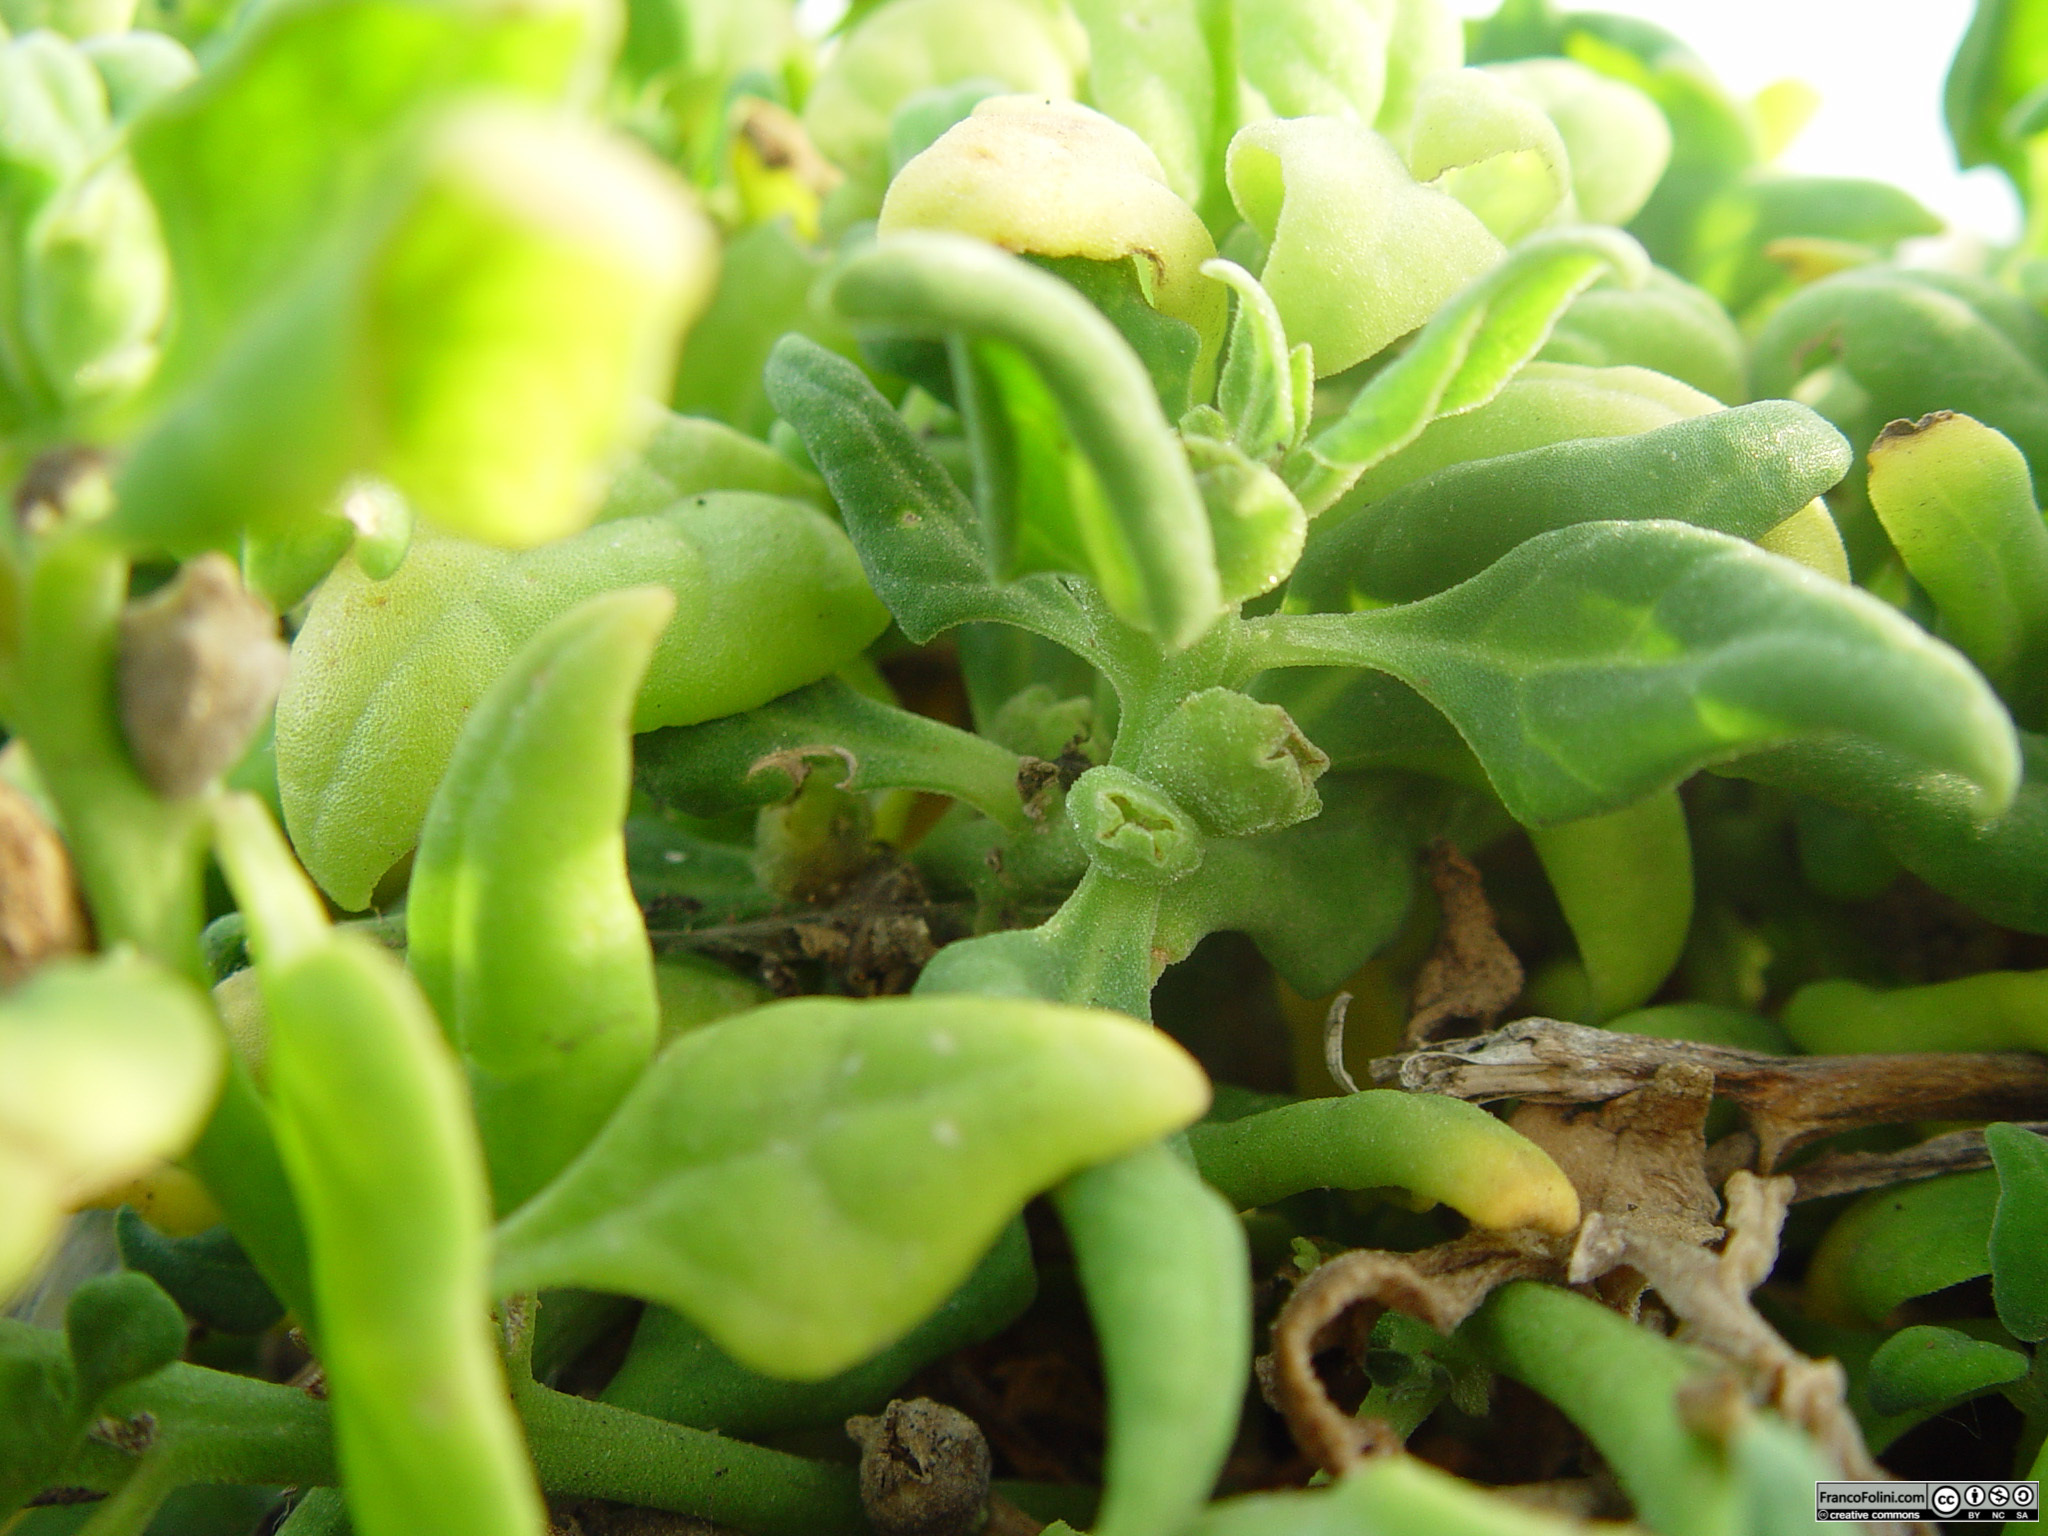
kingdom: Plantae
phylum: Tracheophyta
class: Magnoliopsida
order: Caryophyllales
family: Aizoaceae
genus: Tetragonia
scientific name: Tetragonia tetragonoides
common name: New zealand-spinach
